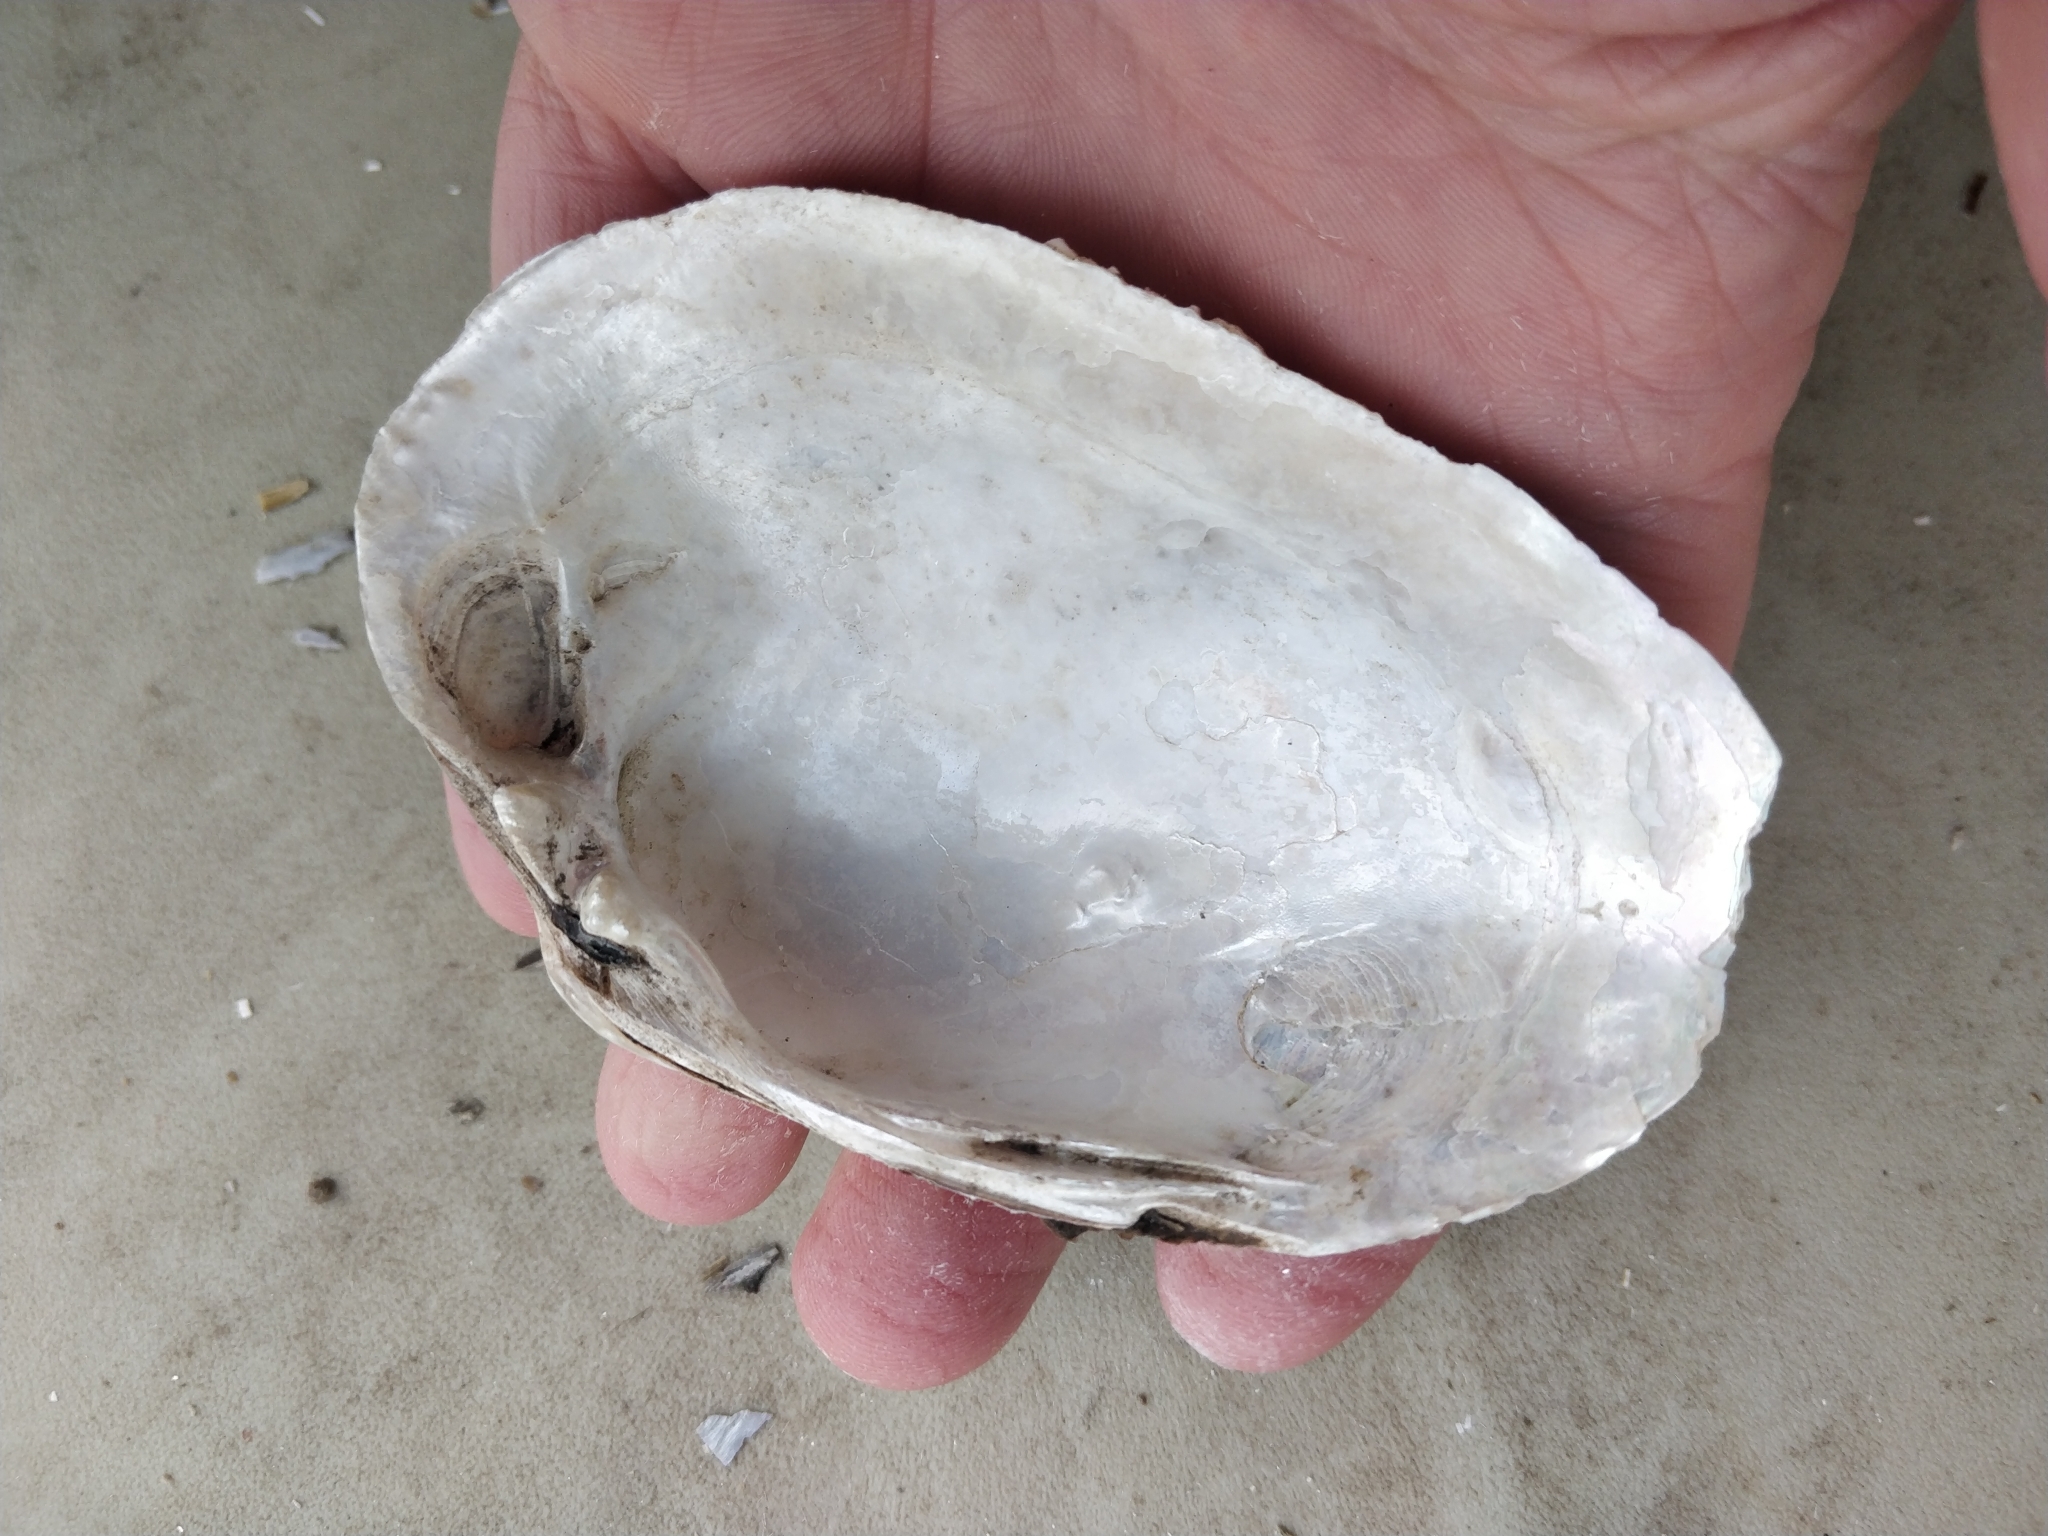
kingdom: Animalia
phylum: Mollusca
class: Bivalvia
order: Unionida
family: Unionidae
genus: Lampsilis
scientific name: Lampsilis cardium
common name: Plain pocketbook
